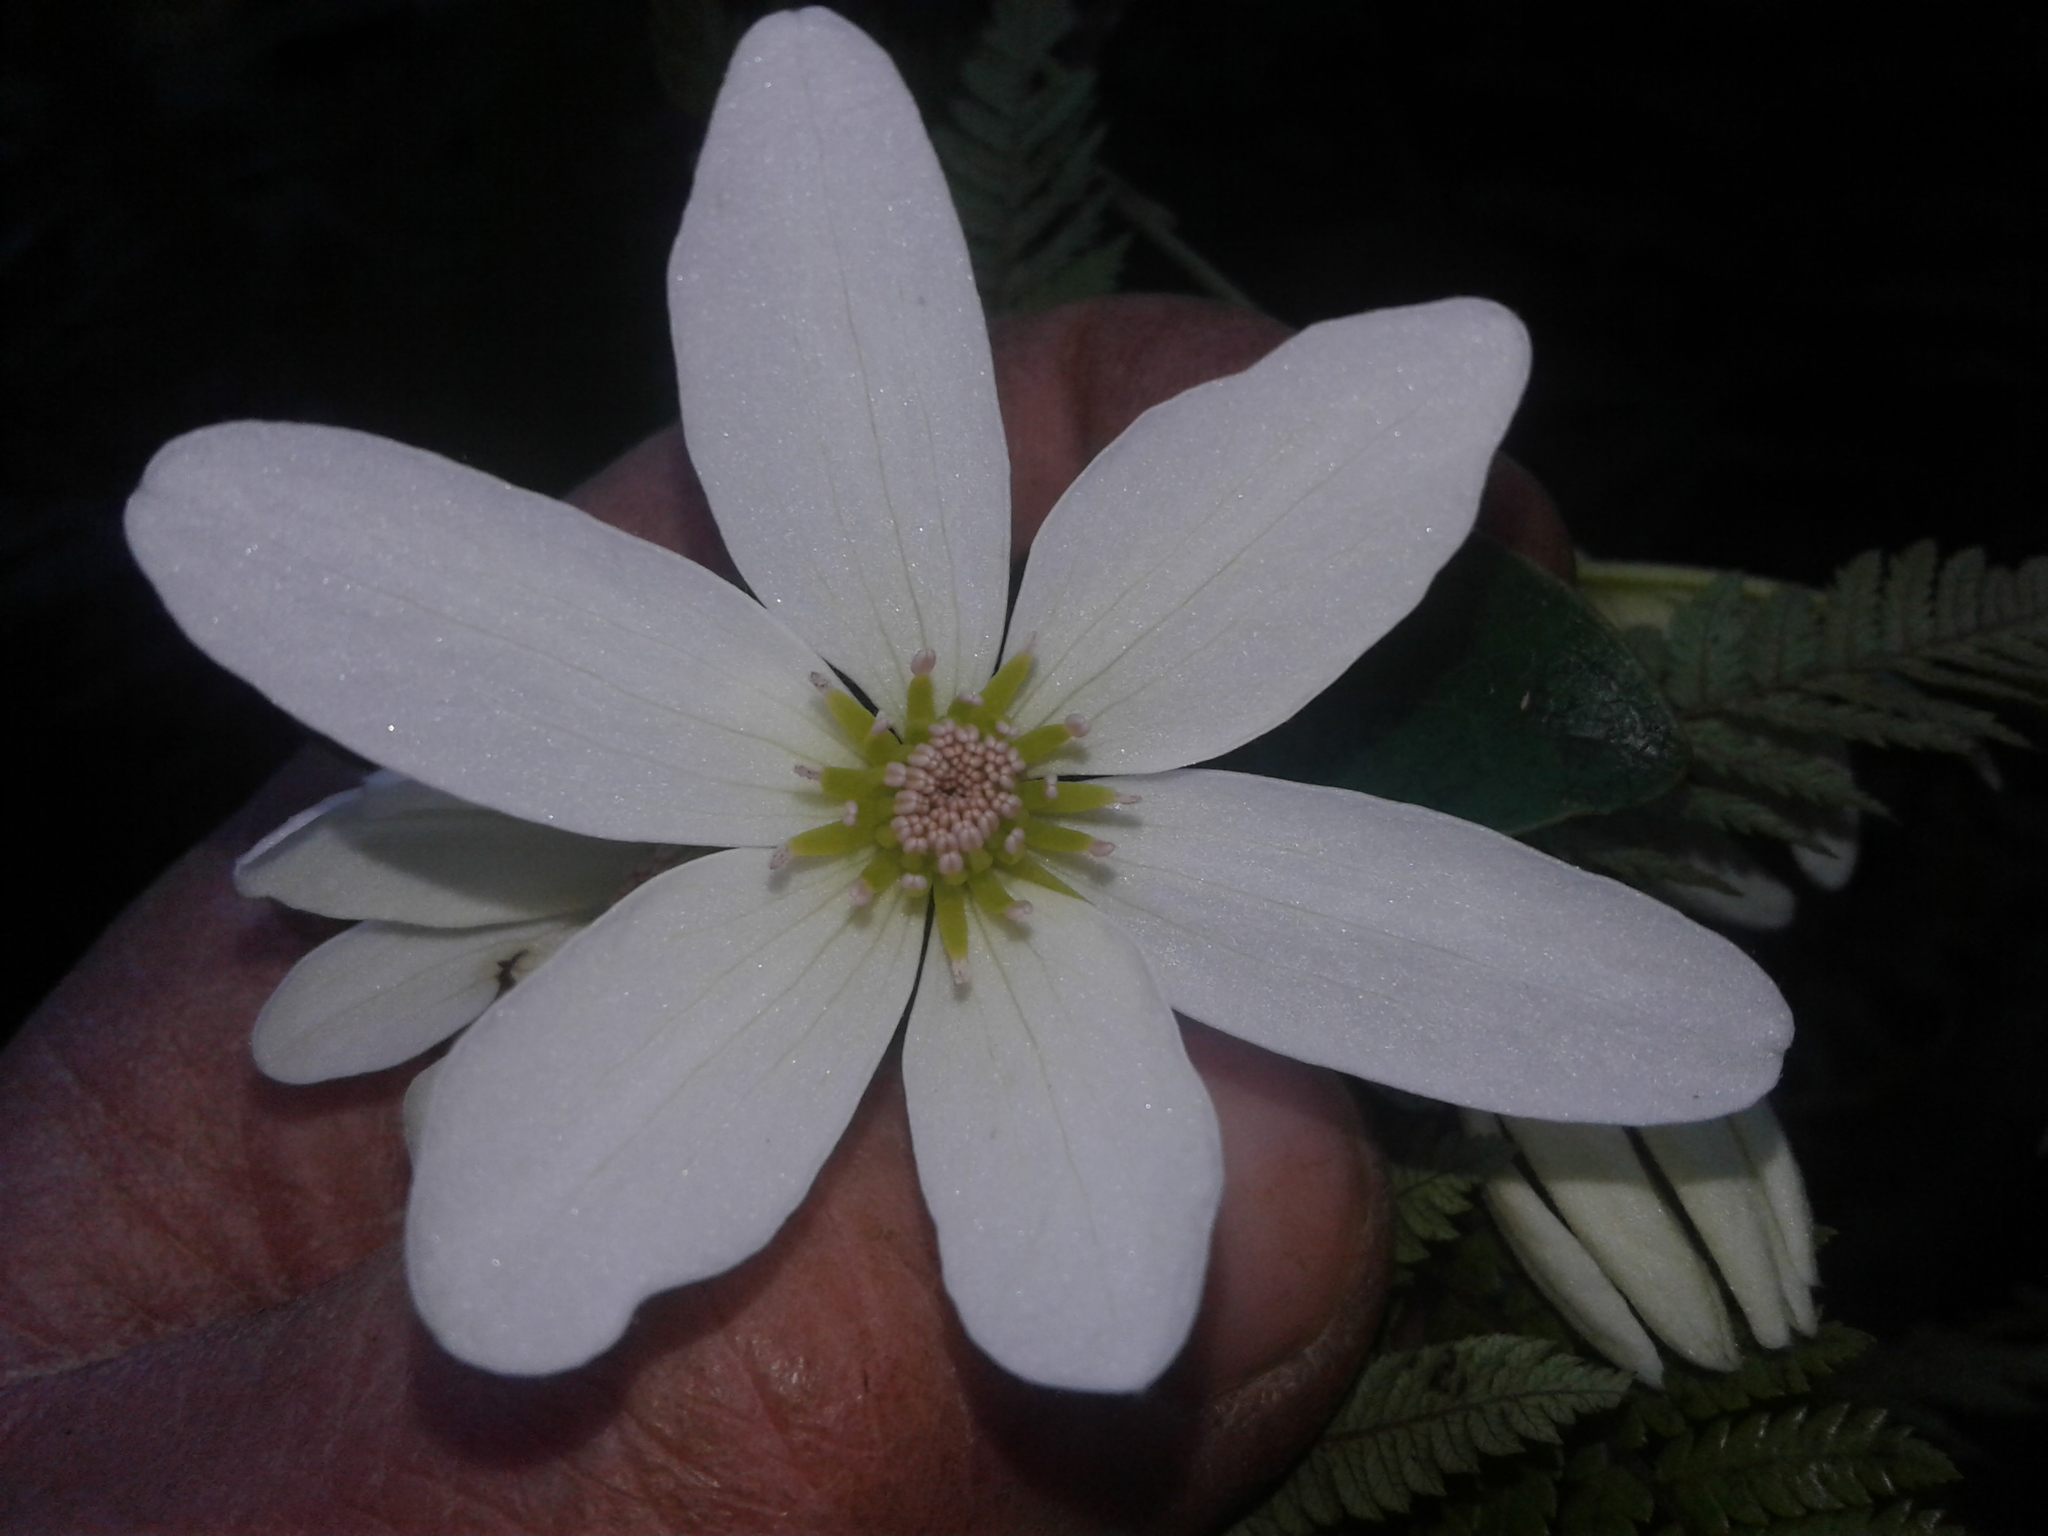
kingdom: Plantae
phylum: Tracheophyta
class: Magnoliopsida
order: Ranunculales
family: Ranunculaceae
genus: Clematis
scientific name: Clematis paniculata
